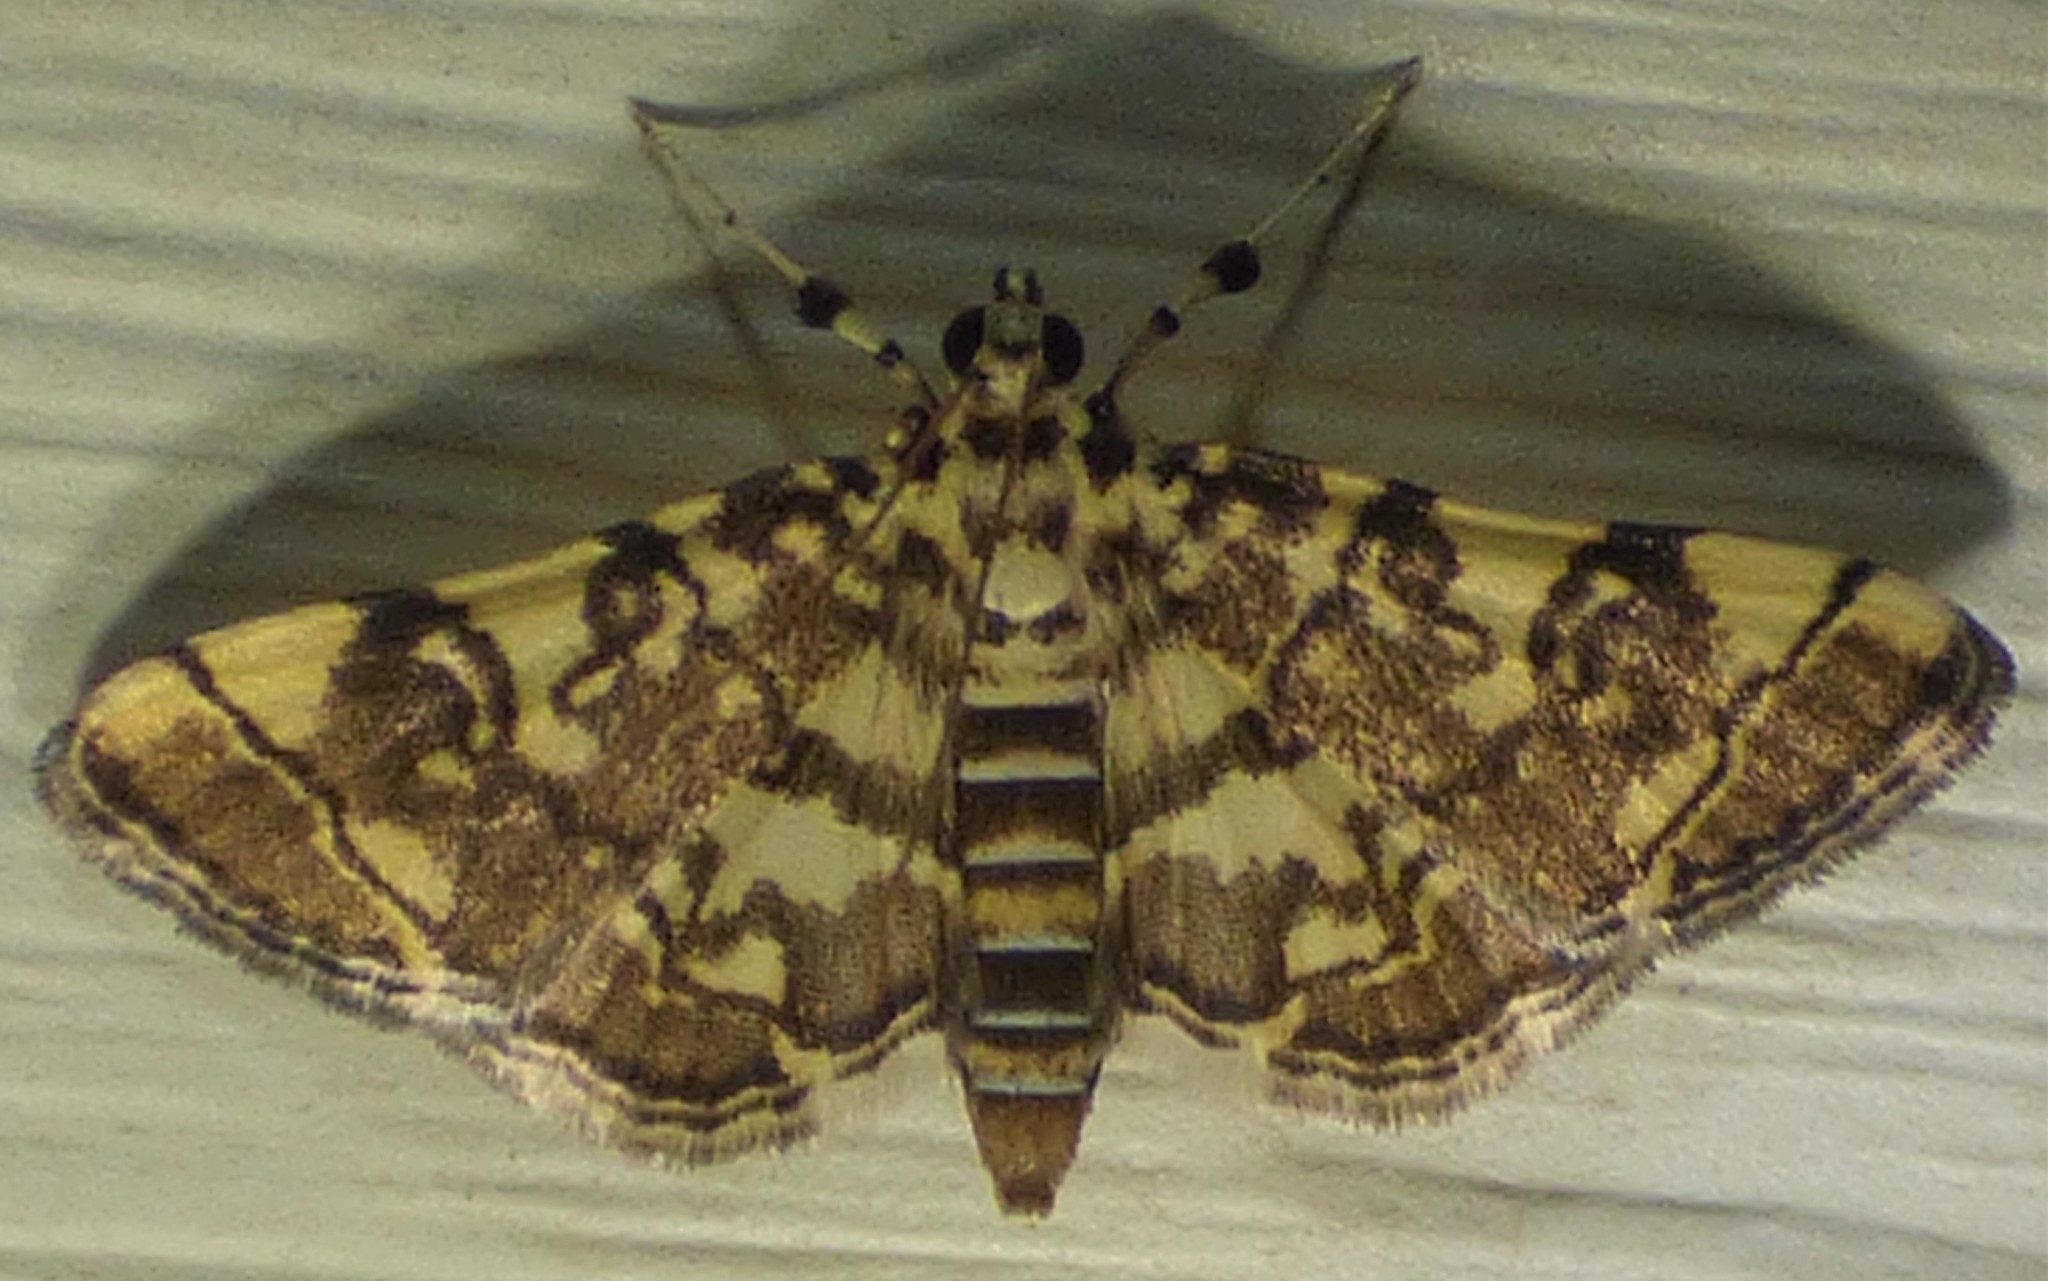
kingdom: Animalia
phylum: Arthropoda
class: Insecta
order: Lepidoptera
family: Crambidae
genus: Apogeshna
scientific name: Apogeshna stenialis
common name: Checkered apogeshna moth
